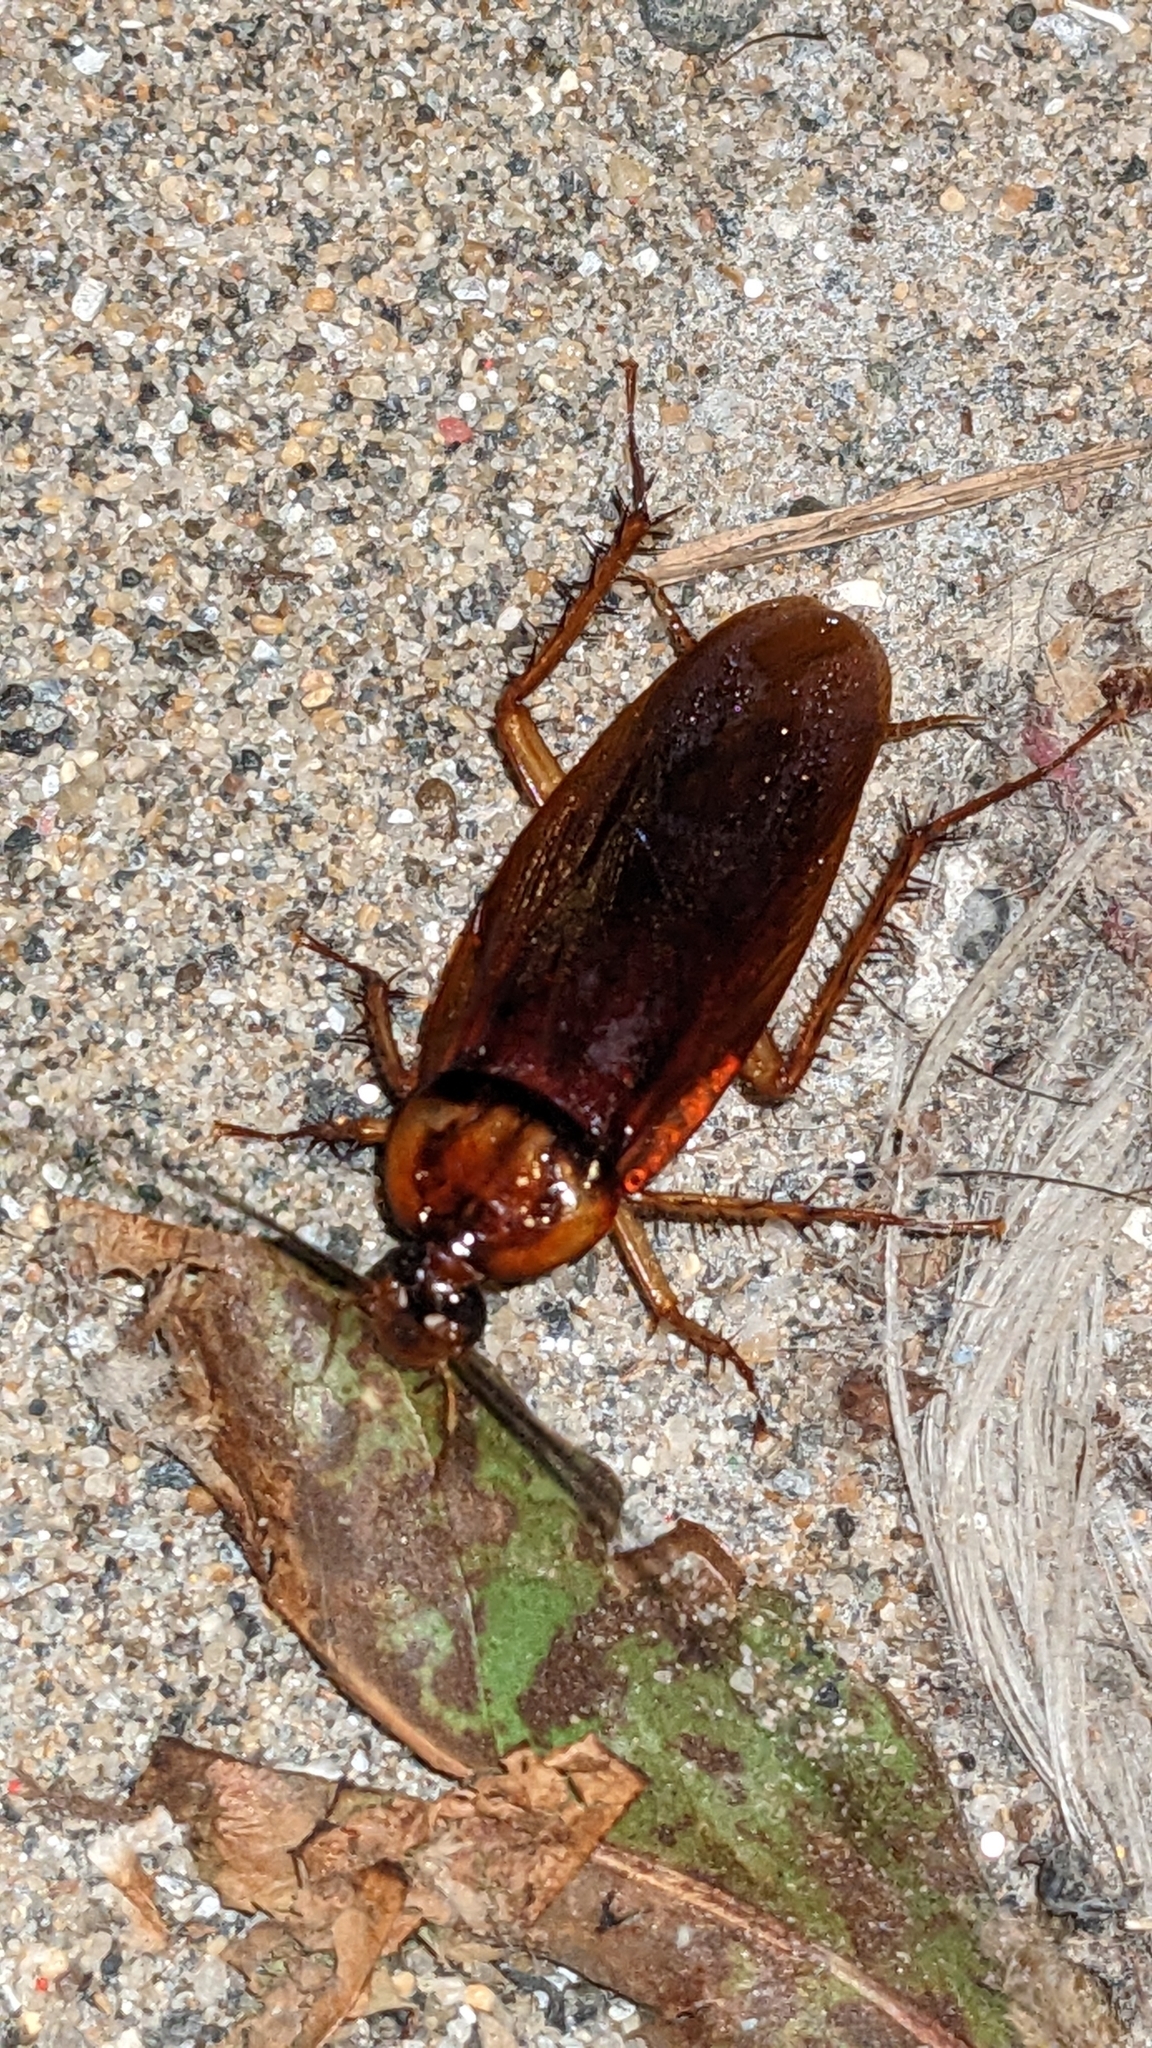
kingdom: Animalia
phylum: Arthropoda
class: Insecta
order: Blattodea
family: Blattidae
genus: Periplaneta
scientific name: Periplaneta americana
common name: American cockroach
